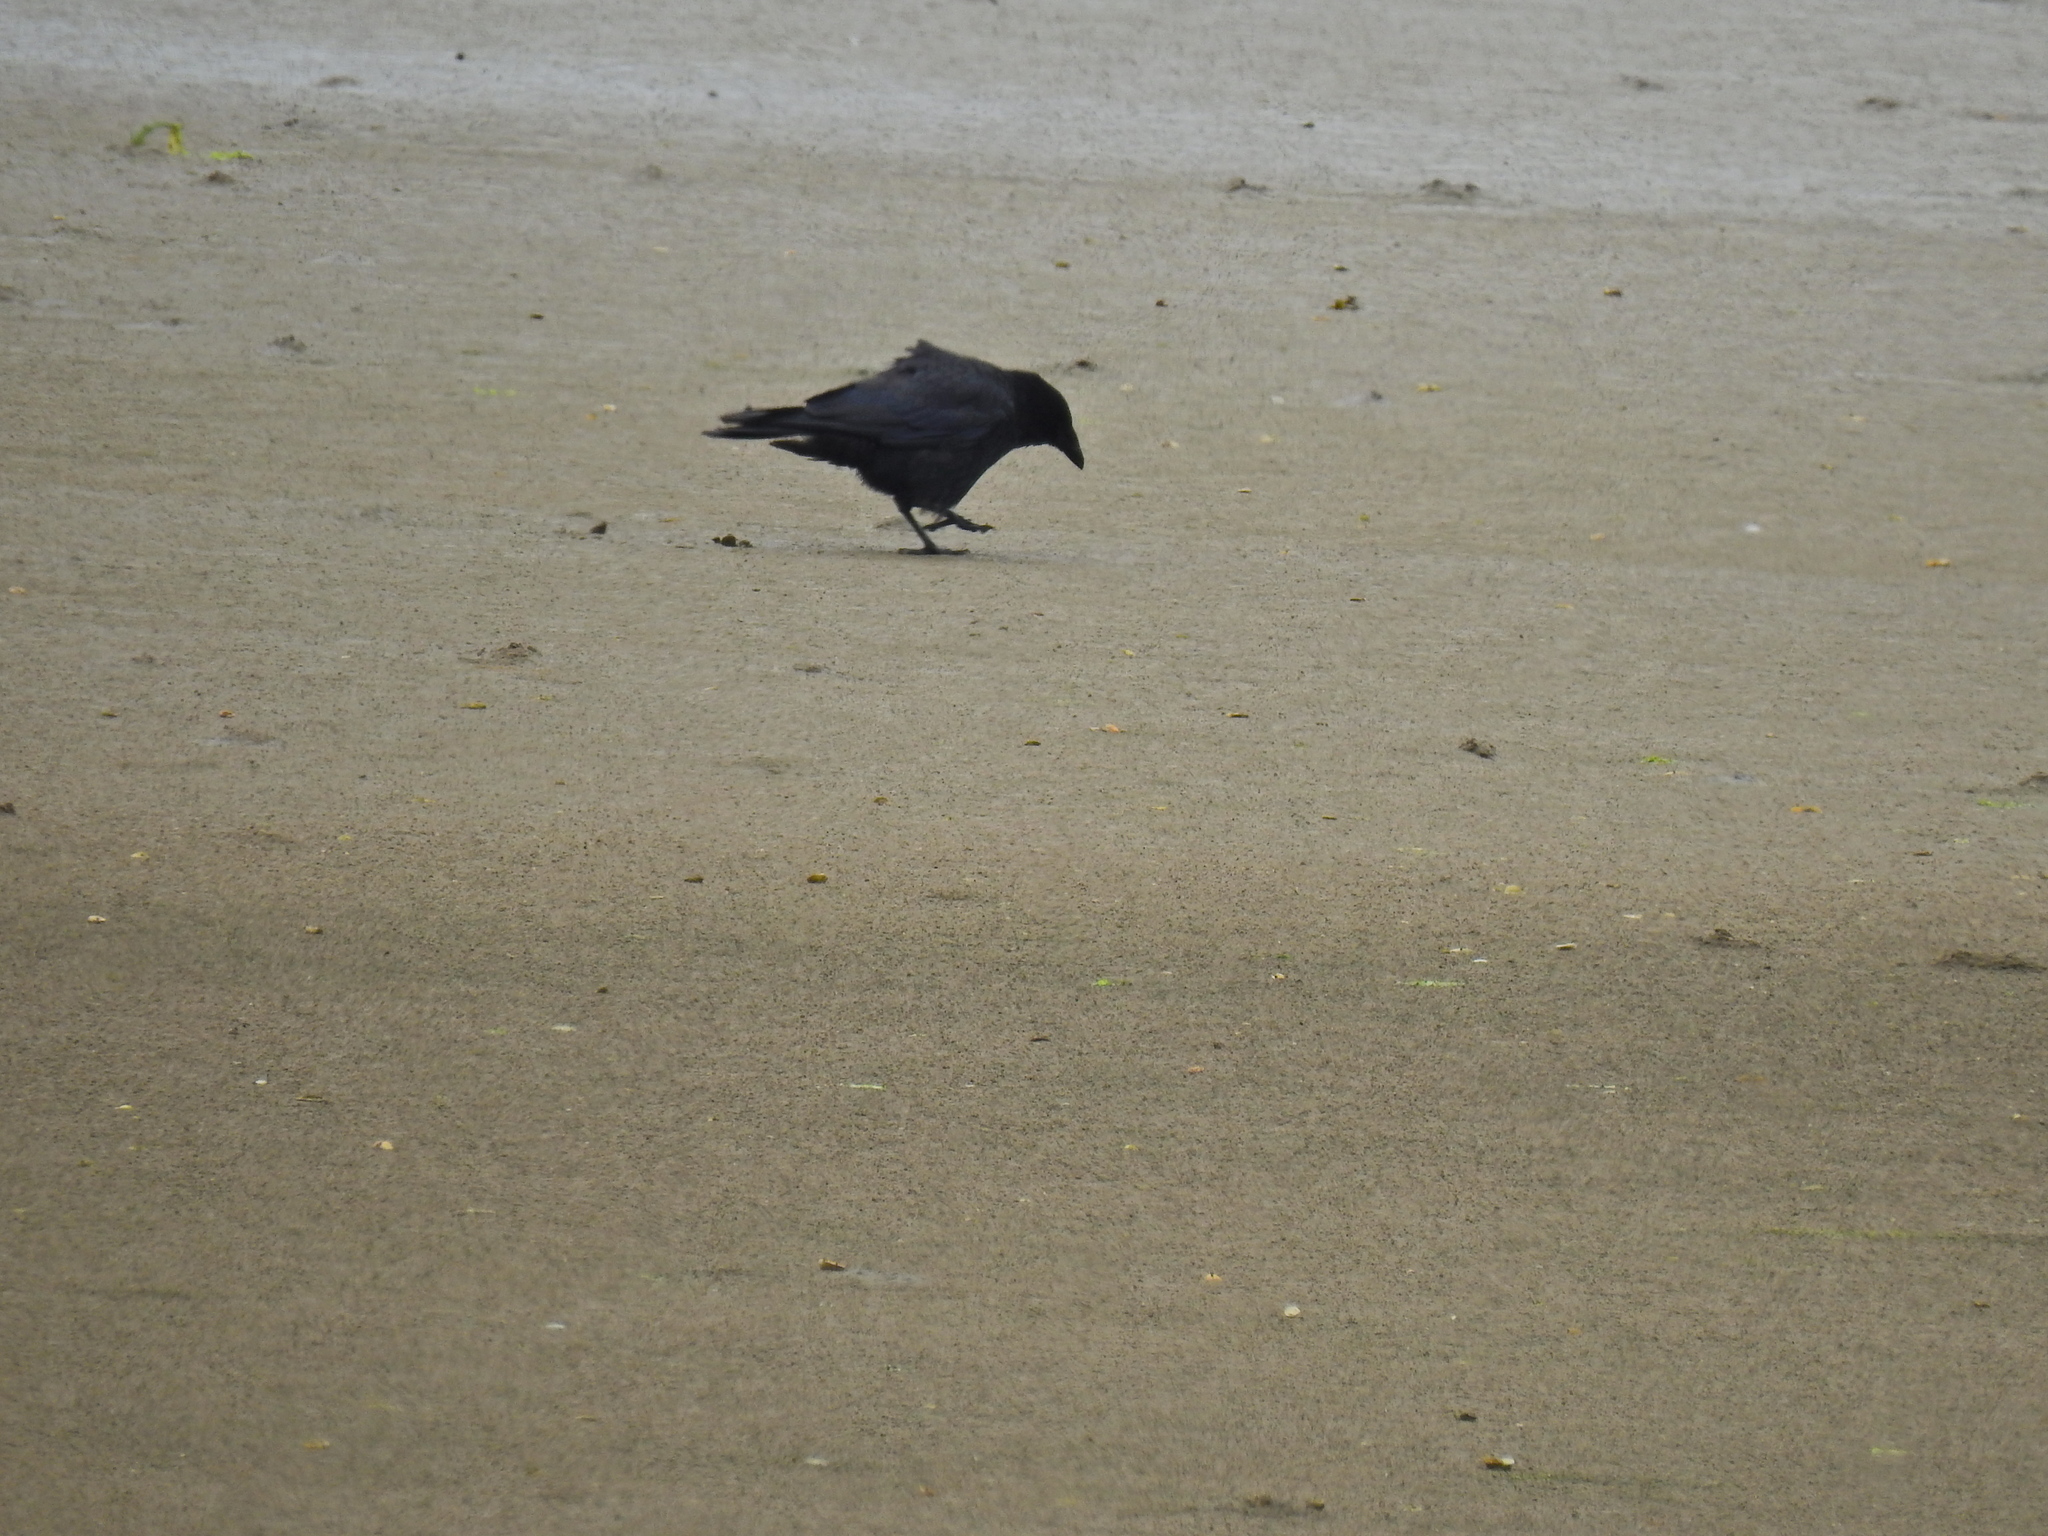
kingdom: Animalia
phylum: Chordata
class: Aves
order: Passeriformes
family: Corvidae
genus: Corvus
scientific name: Corvus corone
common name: Carrion crow
